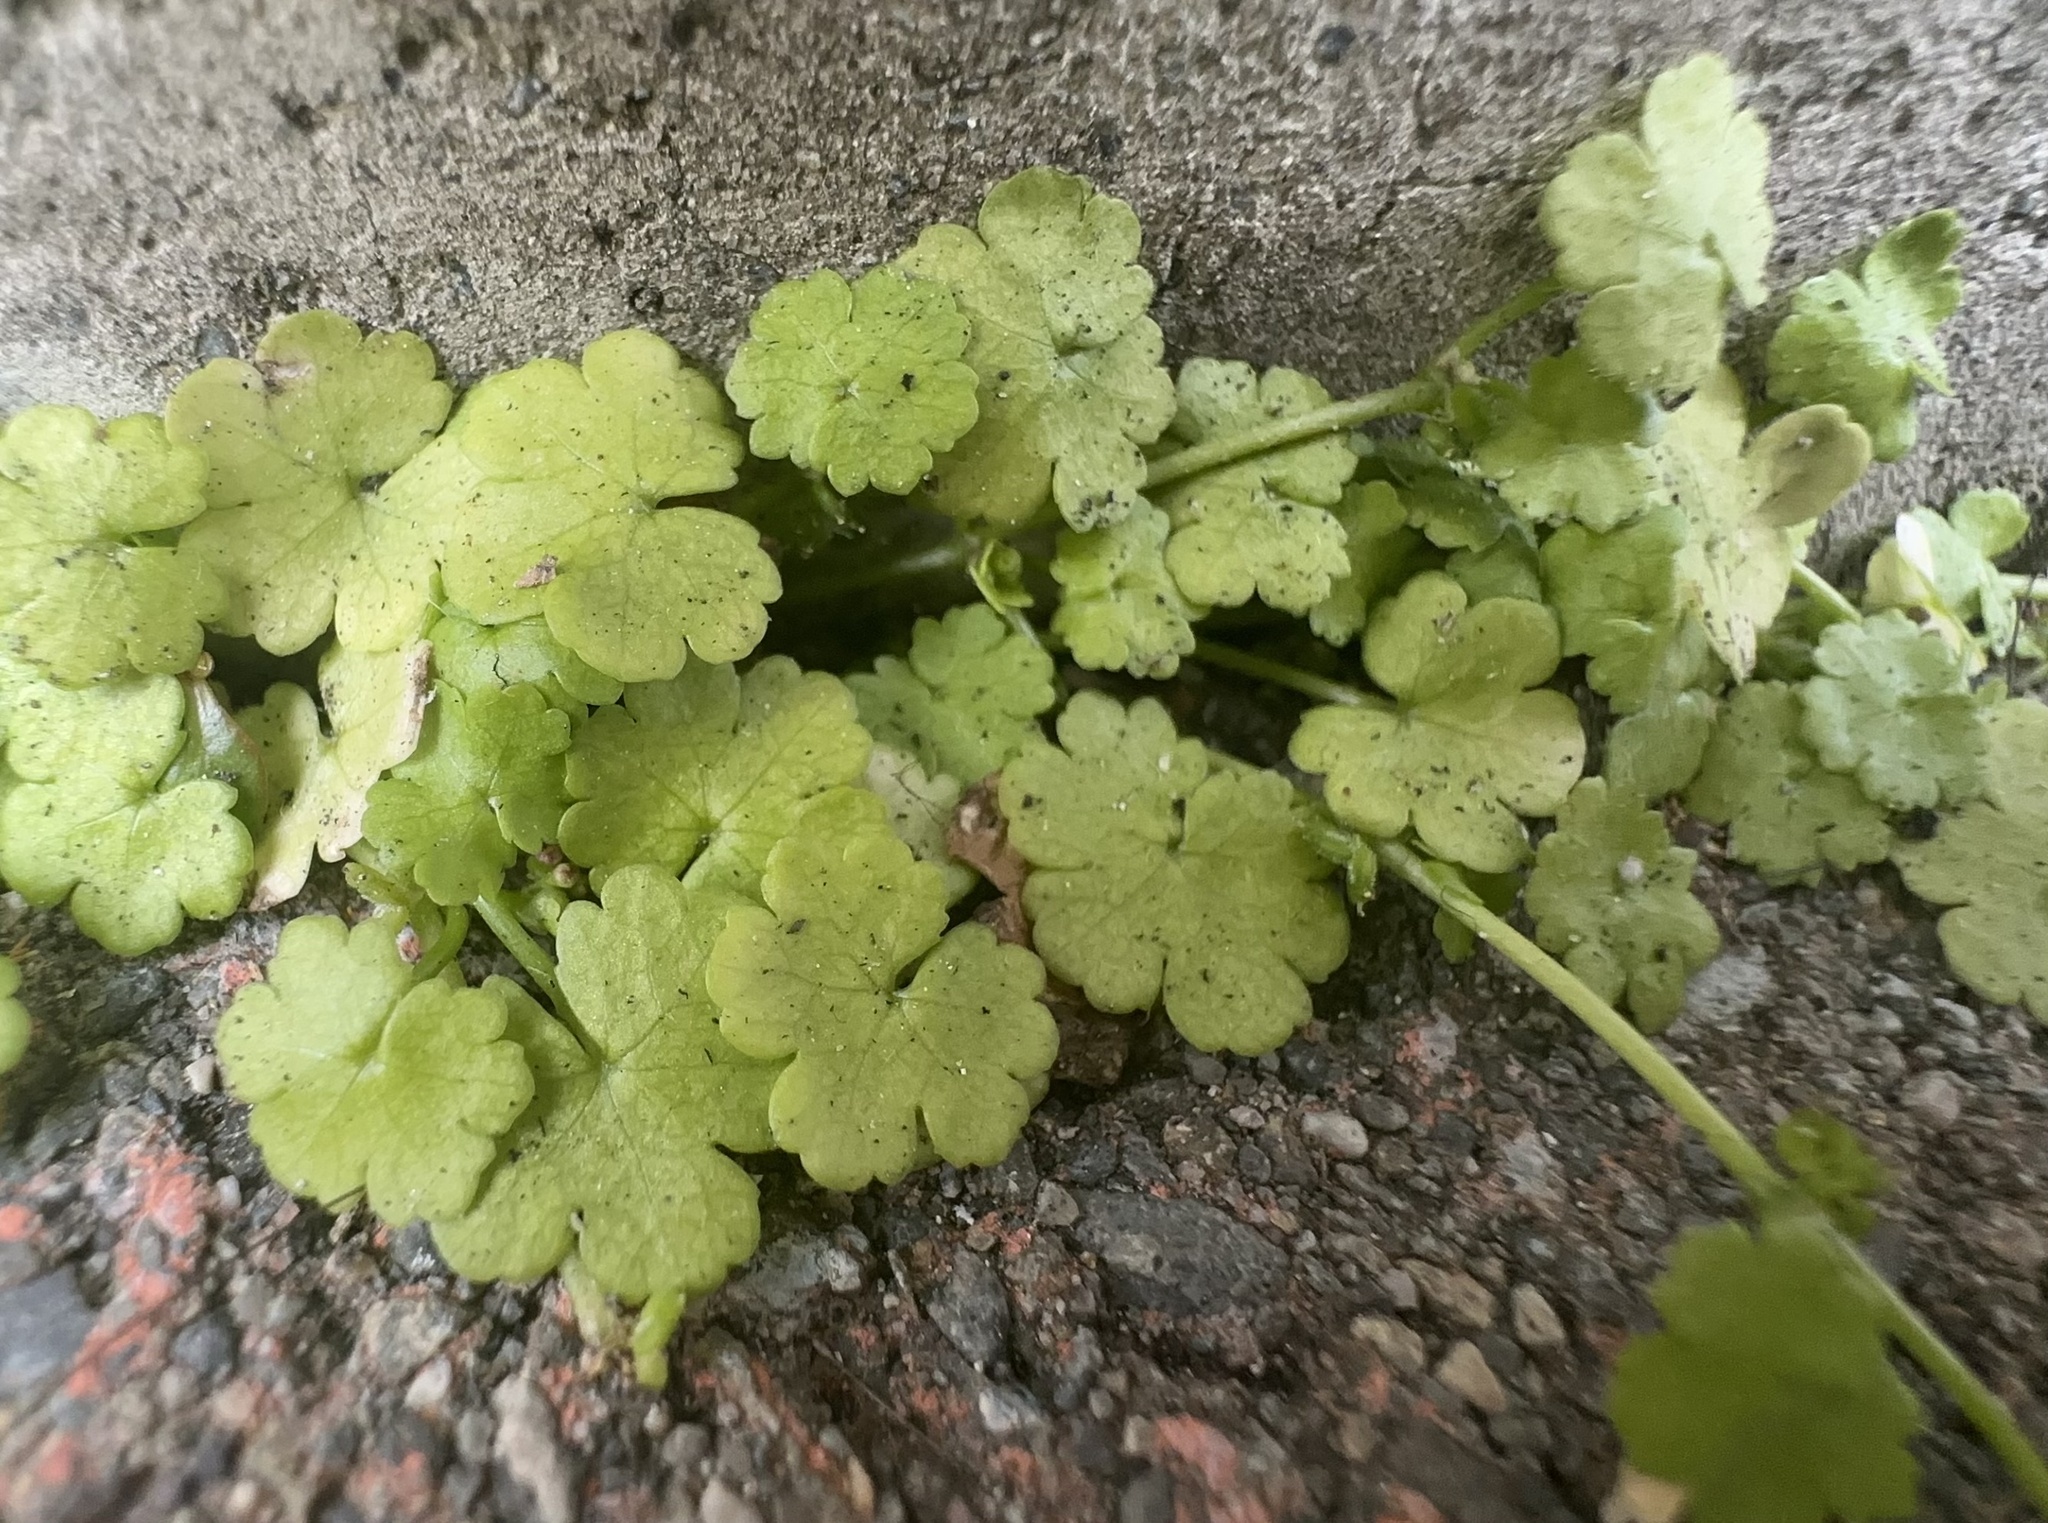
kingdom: Plantae
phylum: Tracheophyta
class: Magnoliopsida
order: Apiales
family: Araliaceae
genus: Hydrocotyle
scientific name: Hydrocotyle heteromeria
